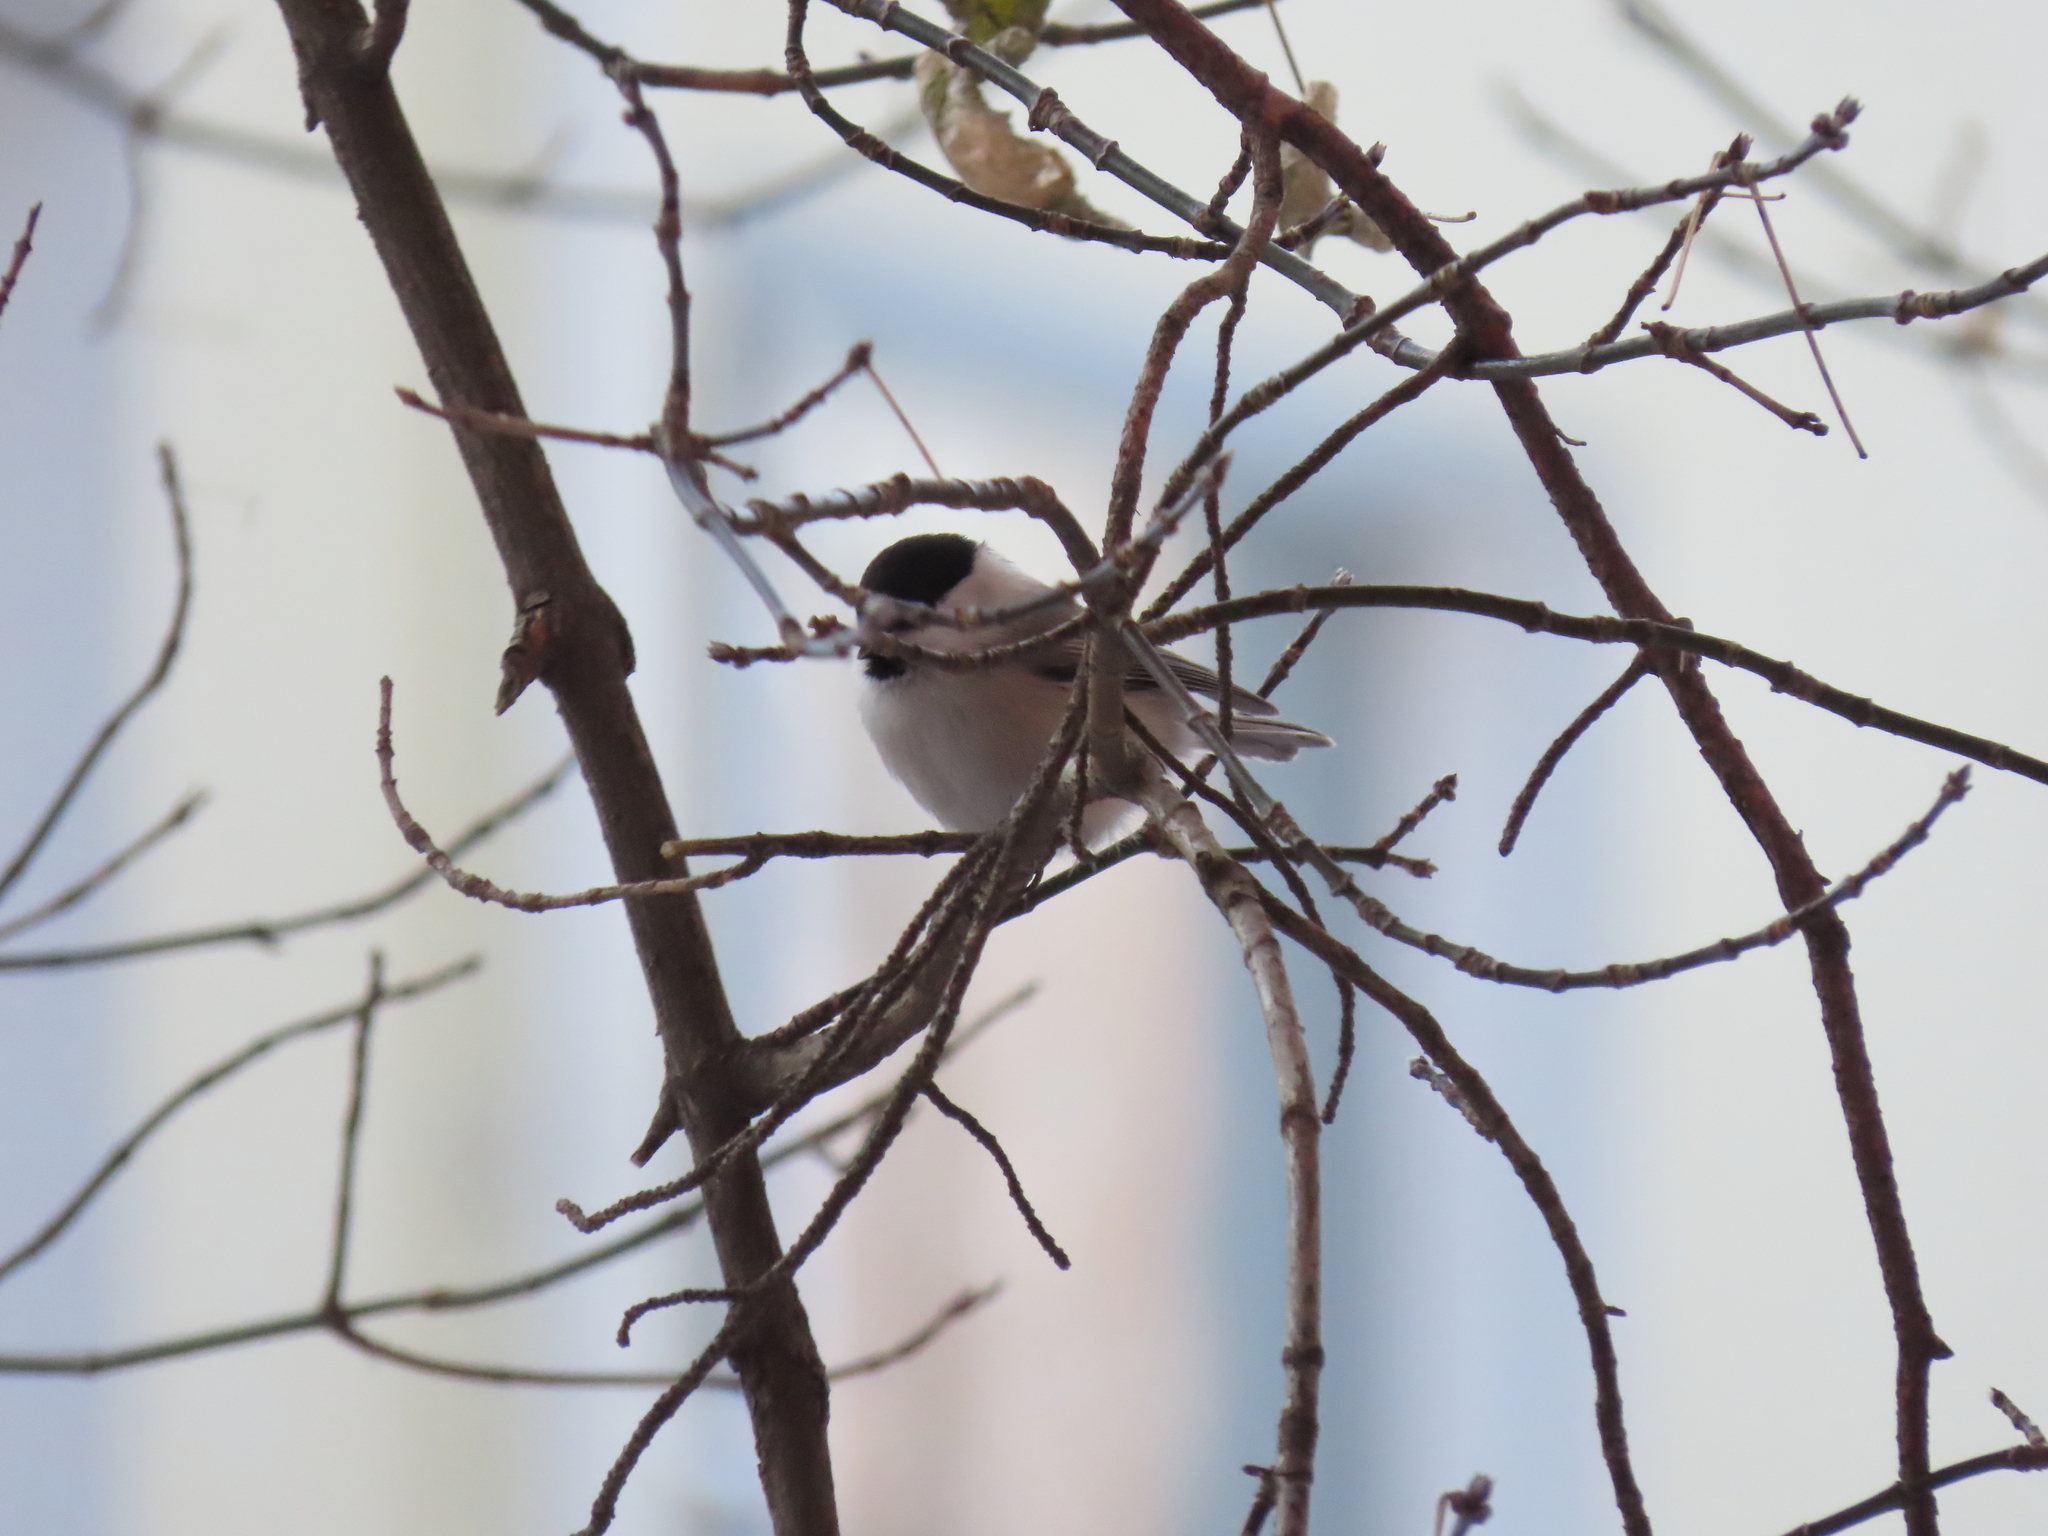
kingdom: Animalia
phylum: Chordata
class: Aves
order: Passeriformes
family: Paridae
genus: Poecile
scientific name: Poecile montanus
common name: Willow tit
